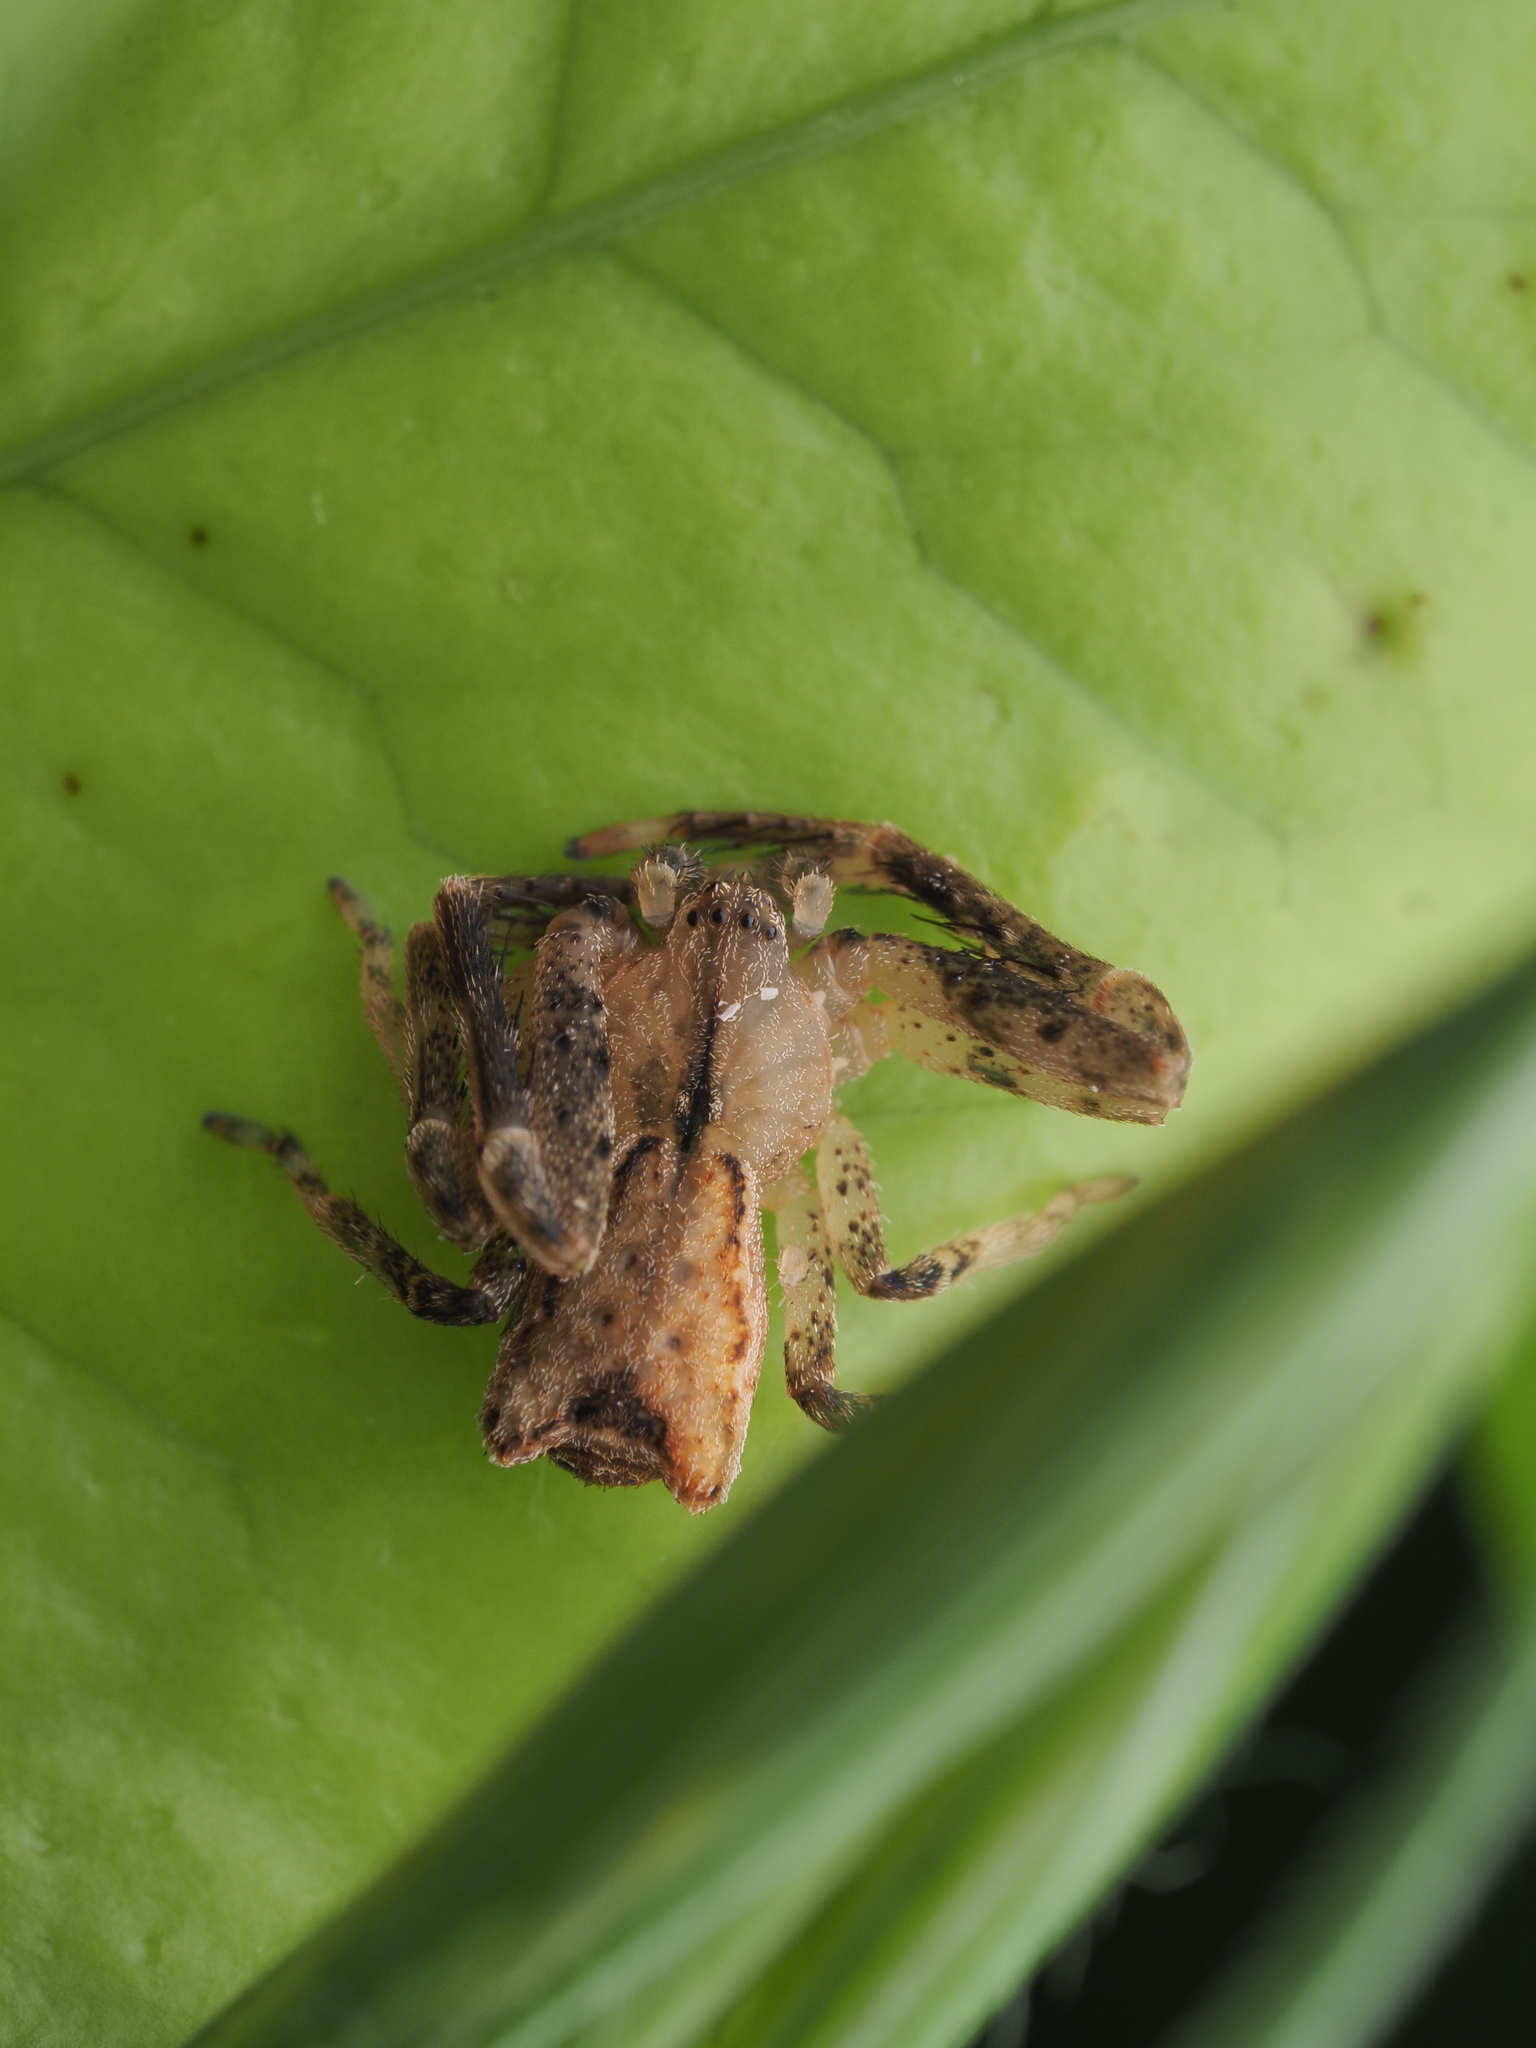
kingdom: Animalia
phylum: Arthropoda
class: Arachnida
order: Araneae
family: Thomisidae
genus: Sidymella
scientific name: Sidymella angularis
